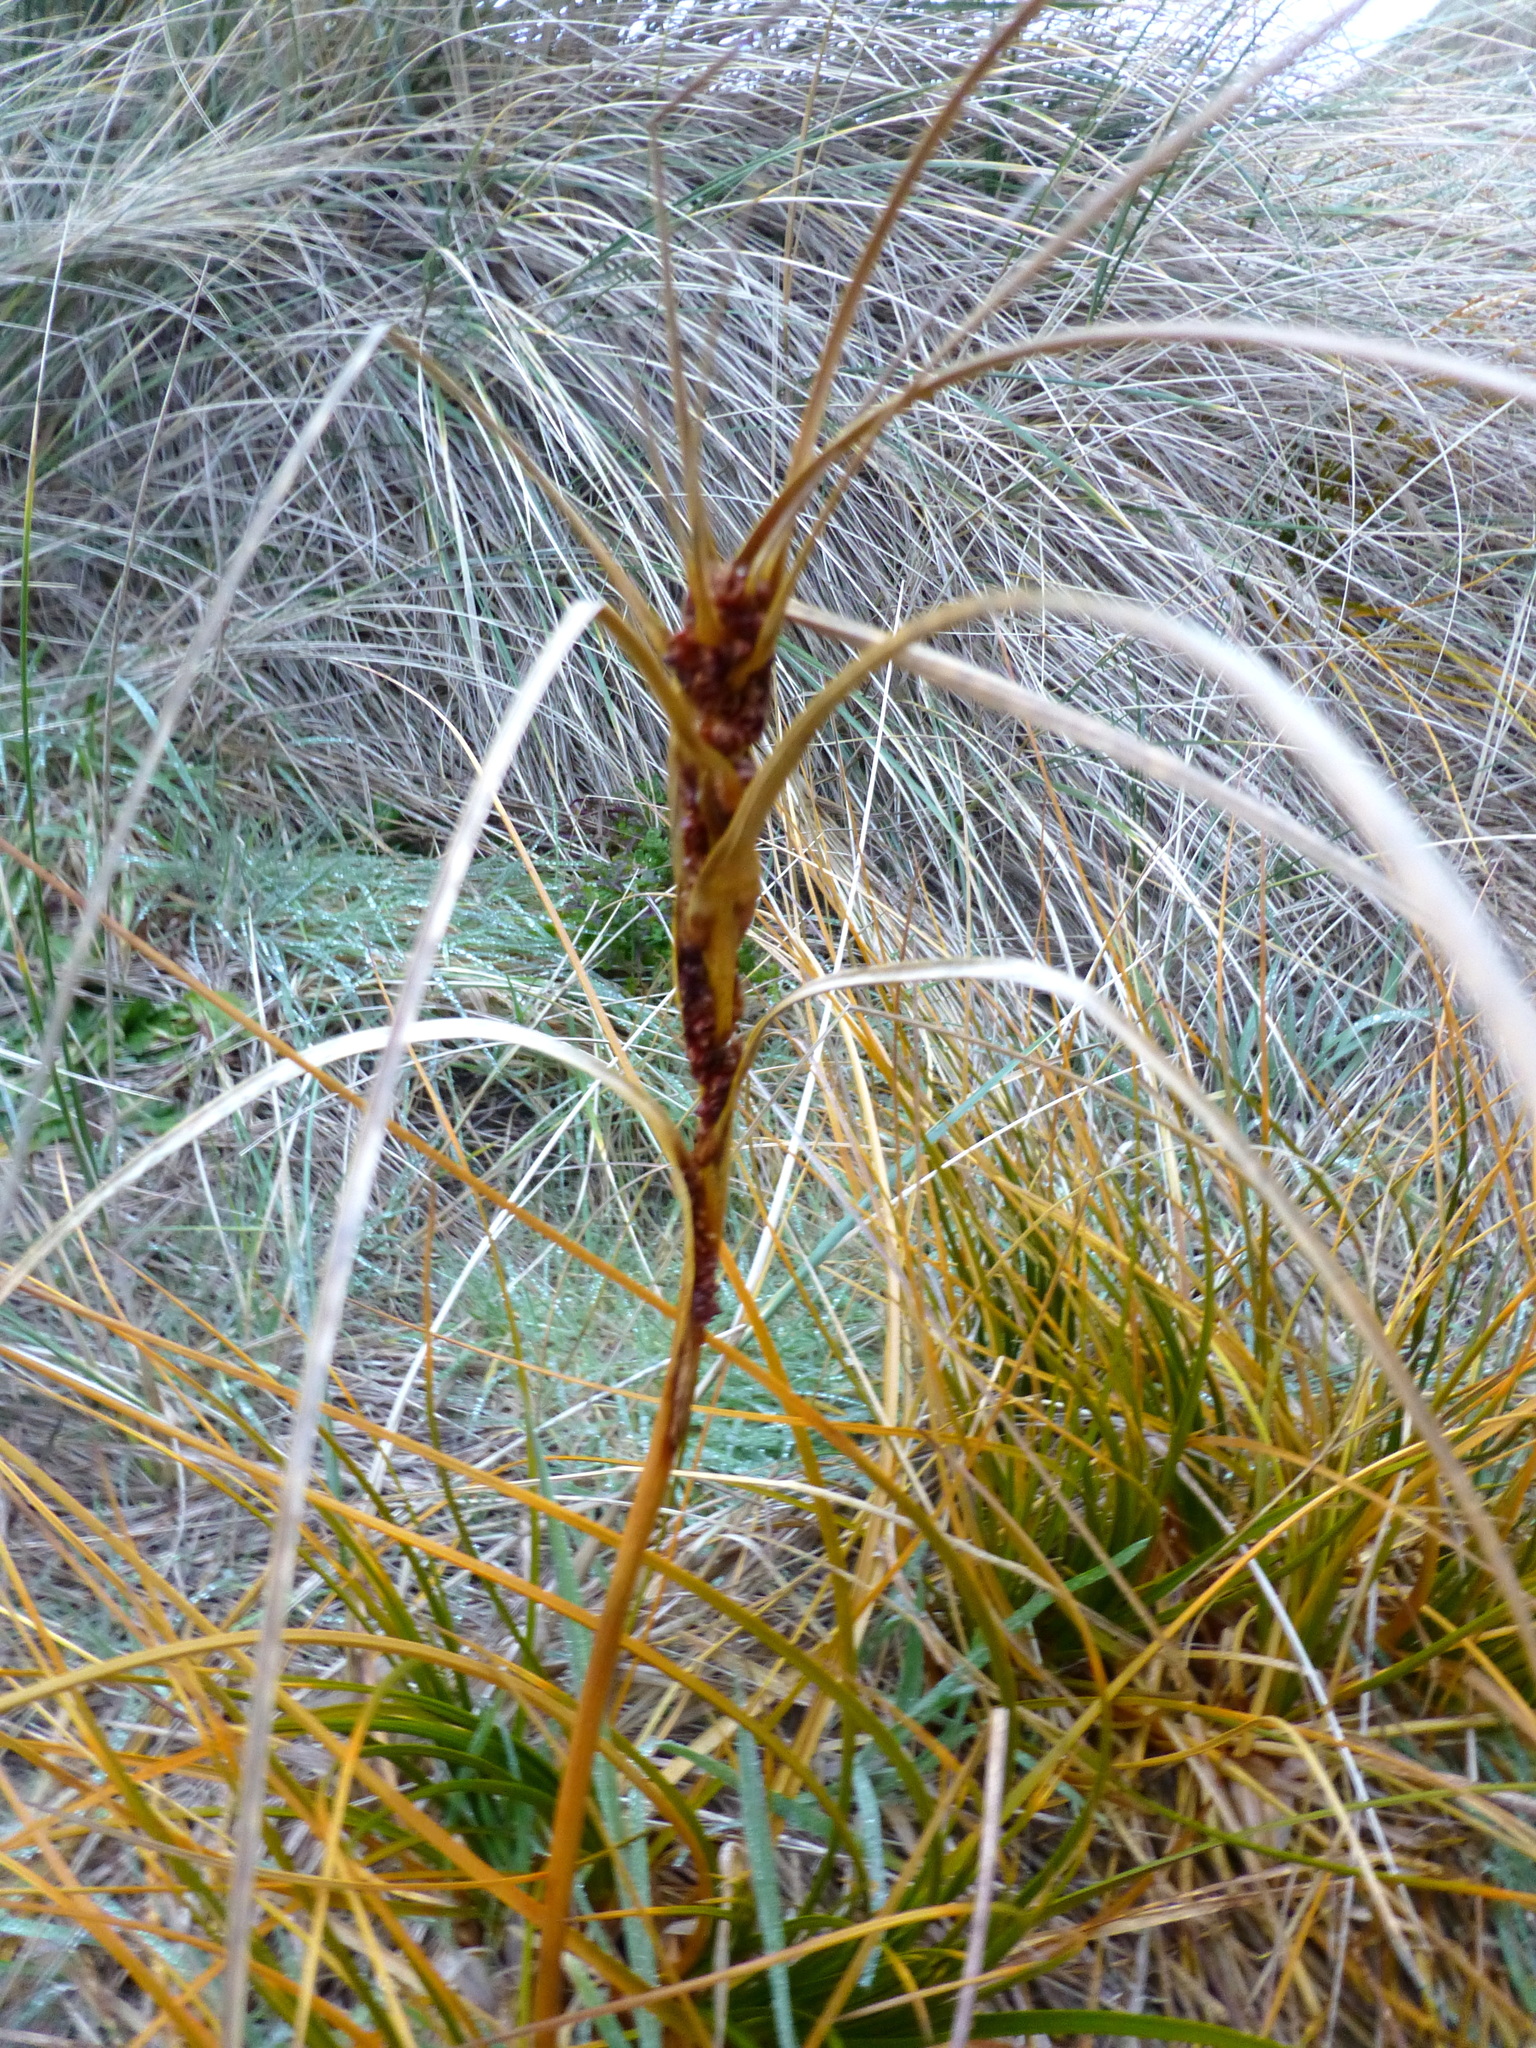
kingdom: Plantae
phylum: Tracheophyta
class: Liliopsida
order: Poales
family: Cyperaceae
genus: Ficinia
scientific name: Ficinia spiralis
